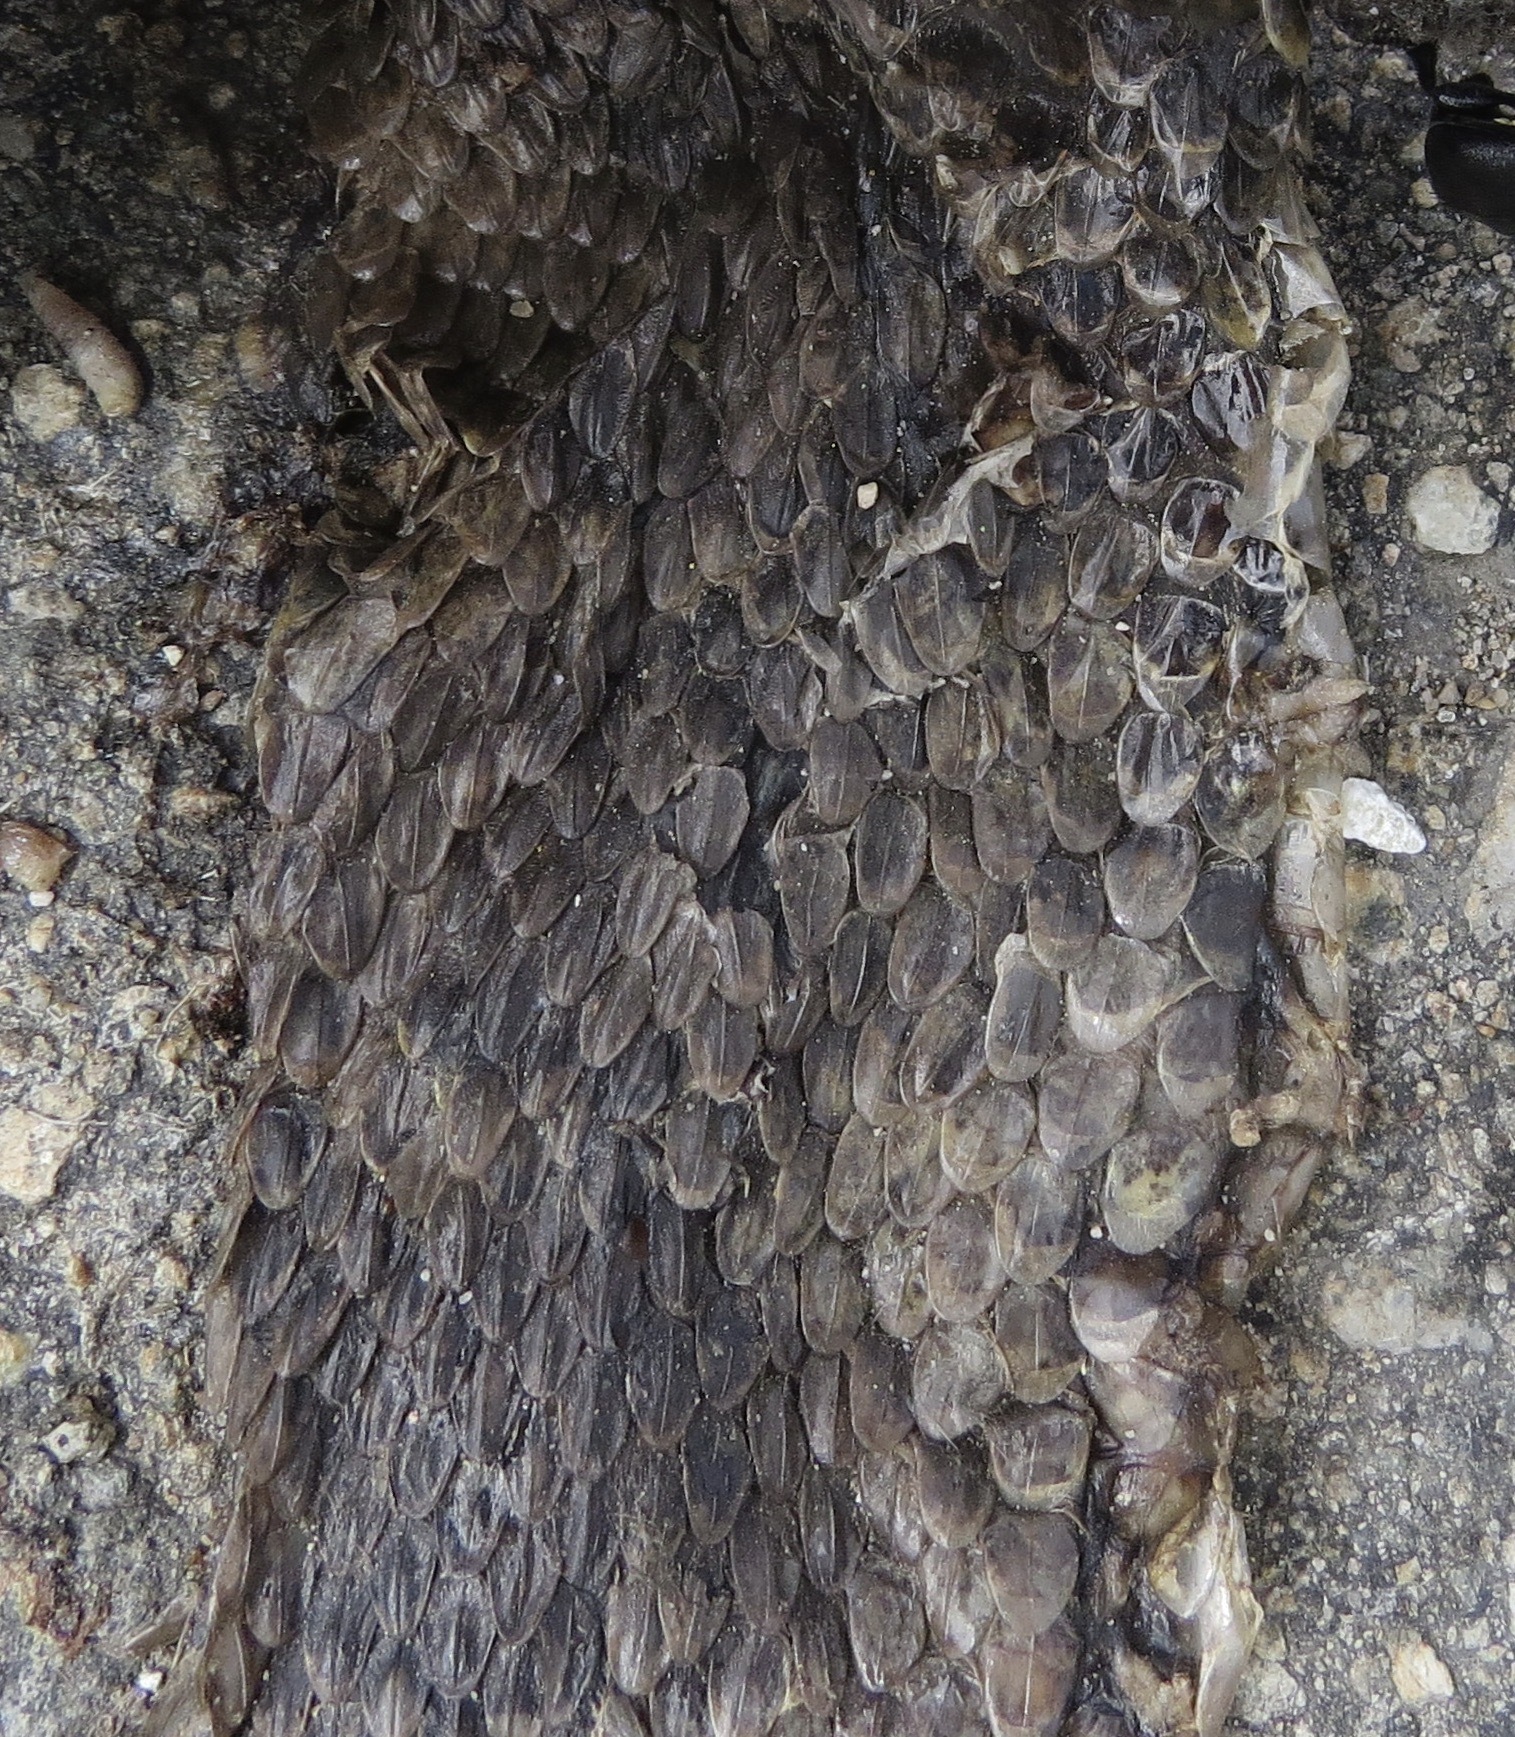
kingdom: Animalia
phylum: Chordata
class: Squamata
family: Viperidae
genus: Crotalus
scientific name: Crotalus oreganus
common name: Abyssus
